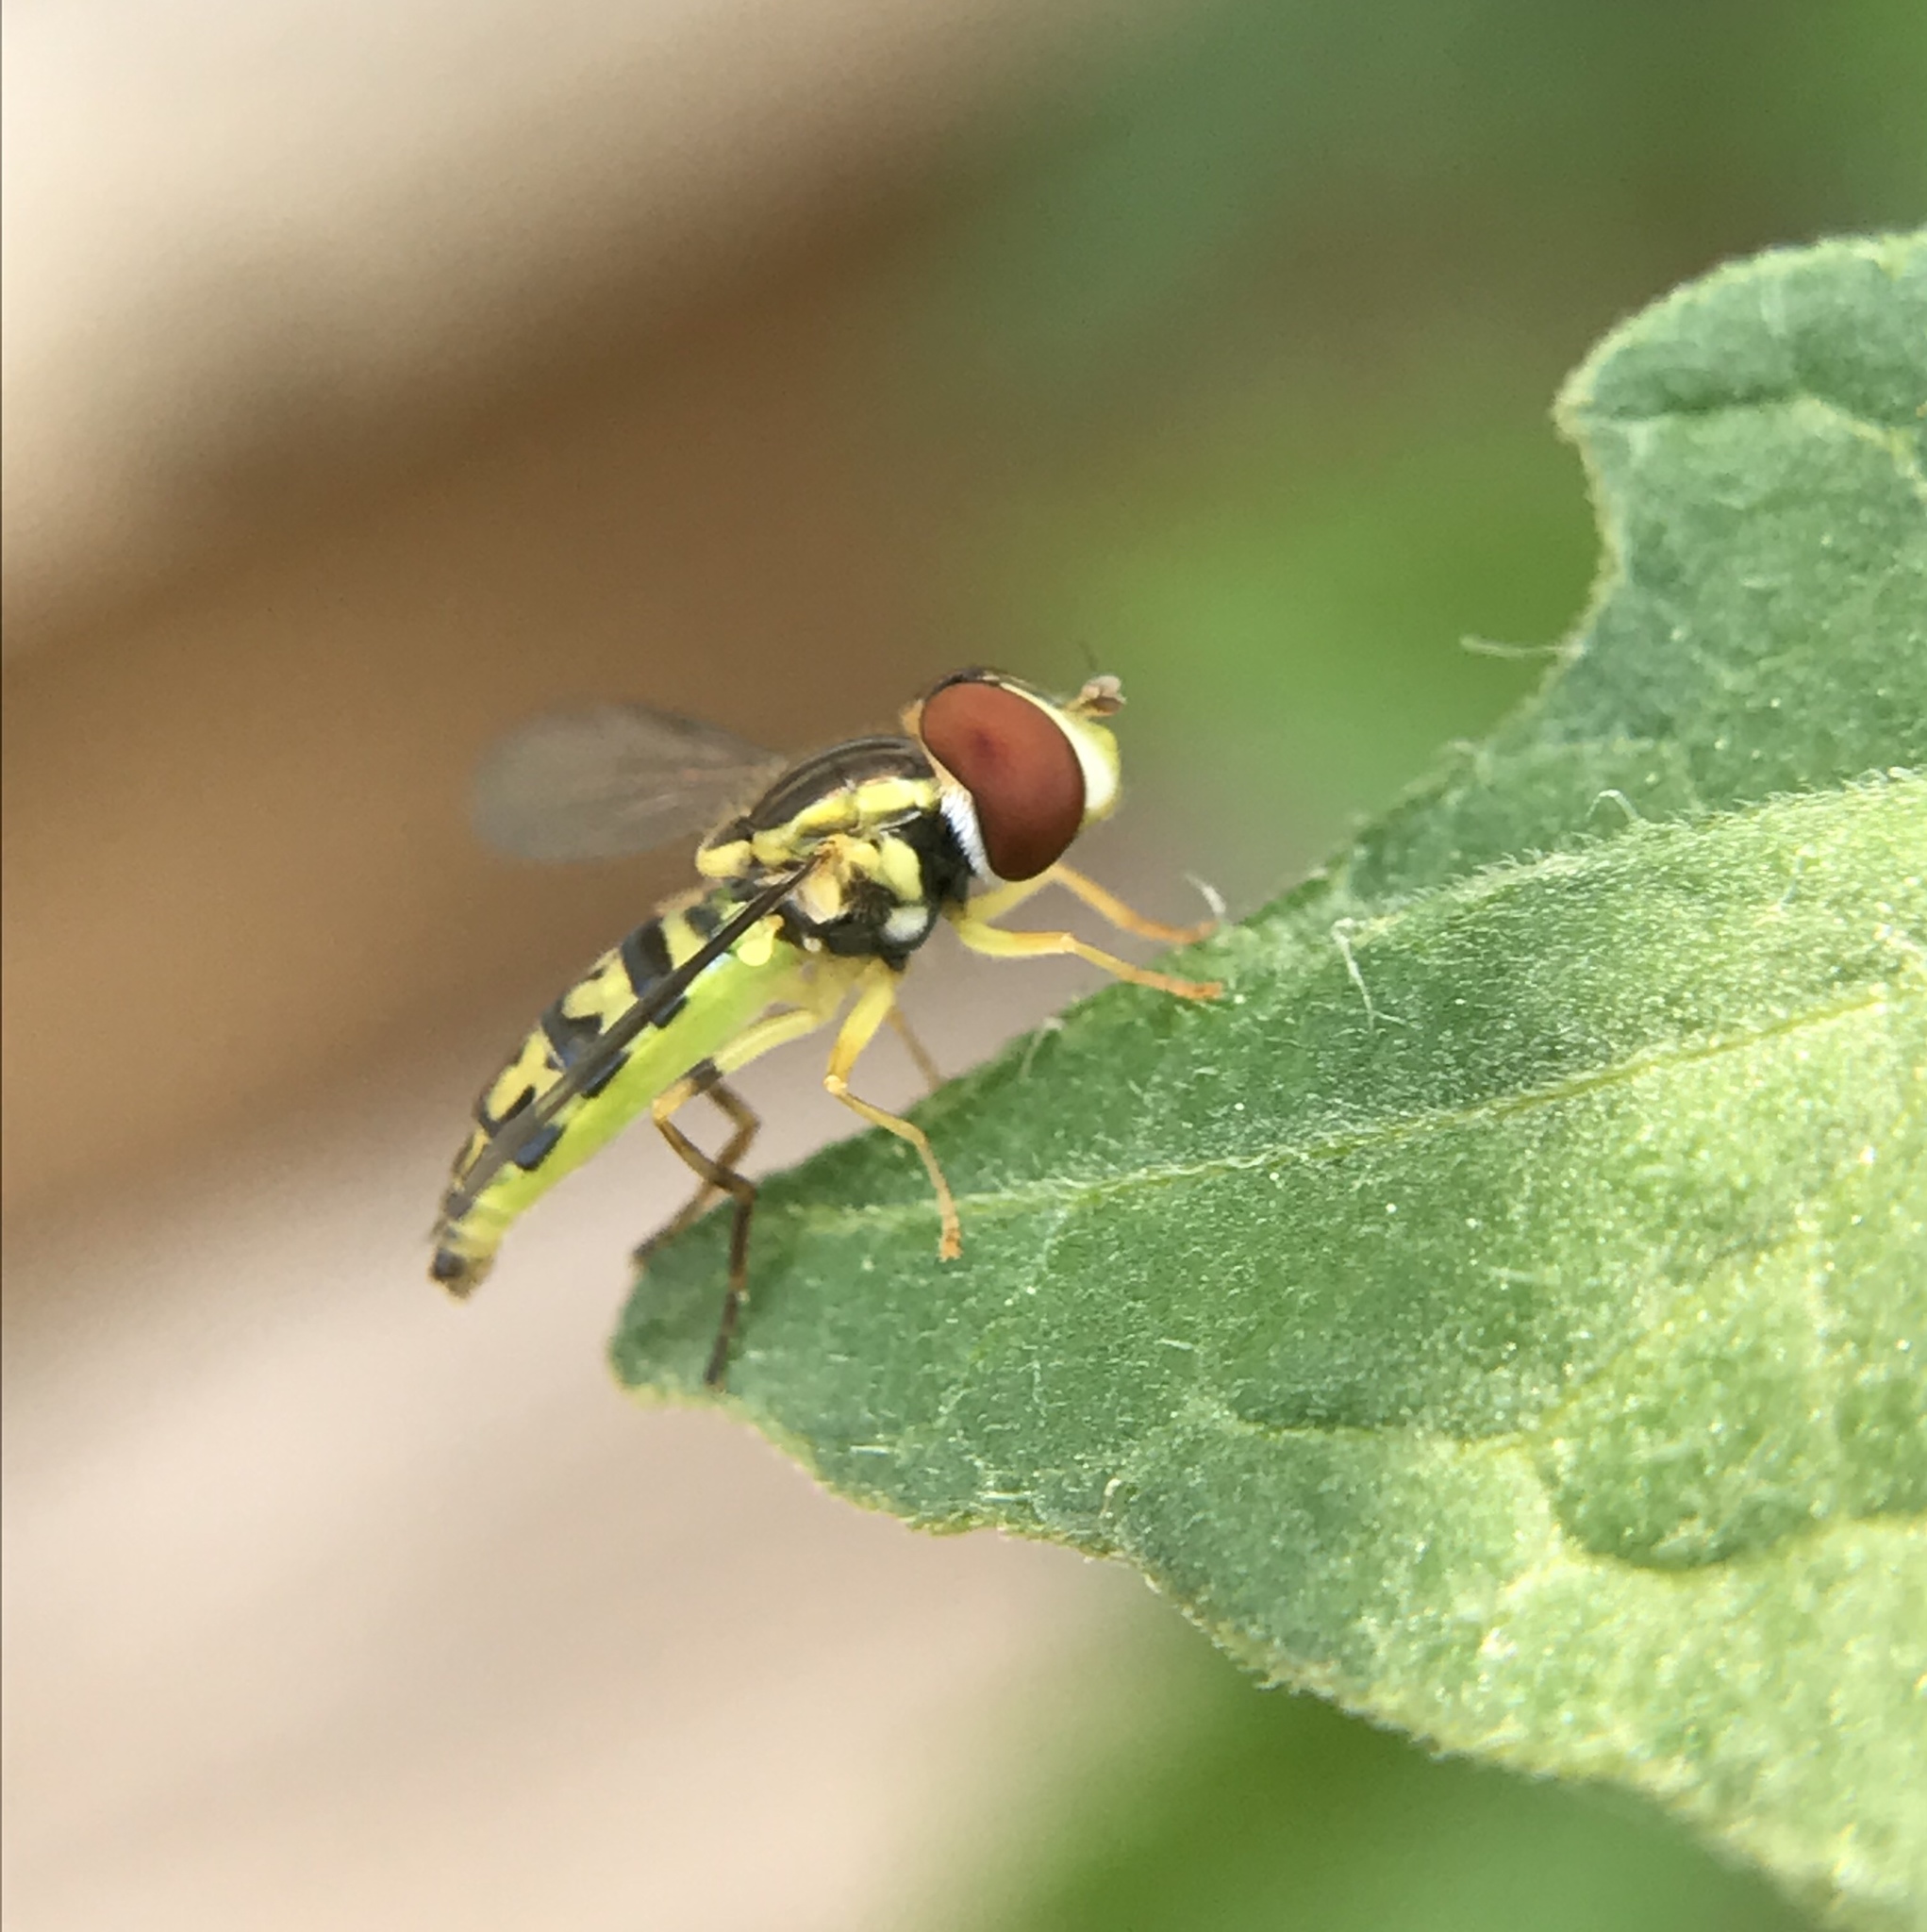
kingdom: Animalia
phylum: Arthropoda
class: Insecta
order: Diptera
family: Syrphidae
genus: Toxomerus
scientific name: Toxomerus geminatus
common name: Eastern calligrapher
